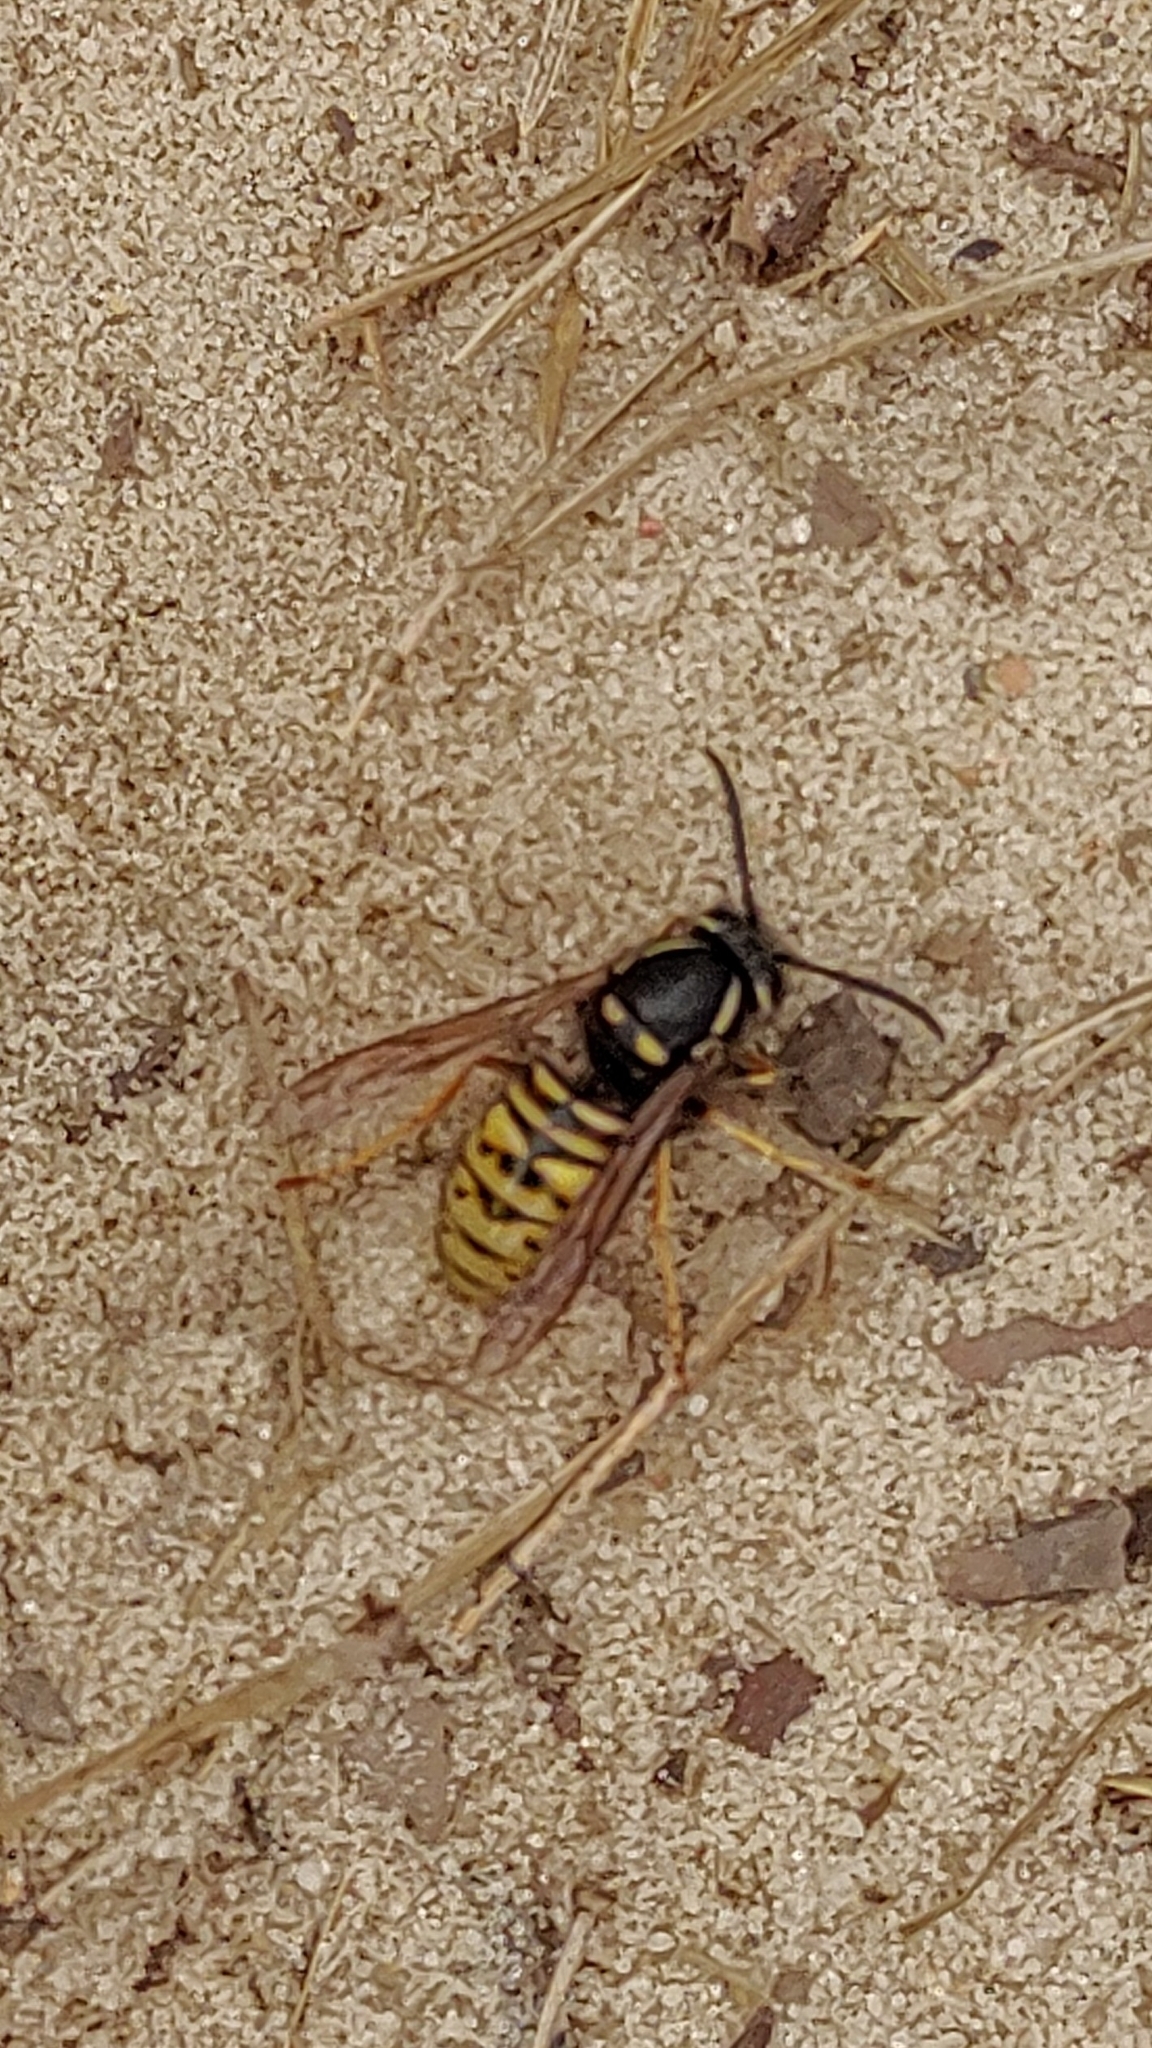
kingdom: Animalia
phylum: Arthropoda
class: Insecta
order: Hymenoptera
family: Vespidae
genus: Vespula
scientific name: Vespula rufa
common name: Red wasp
